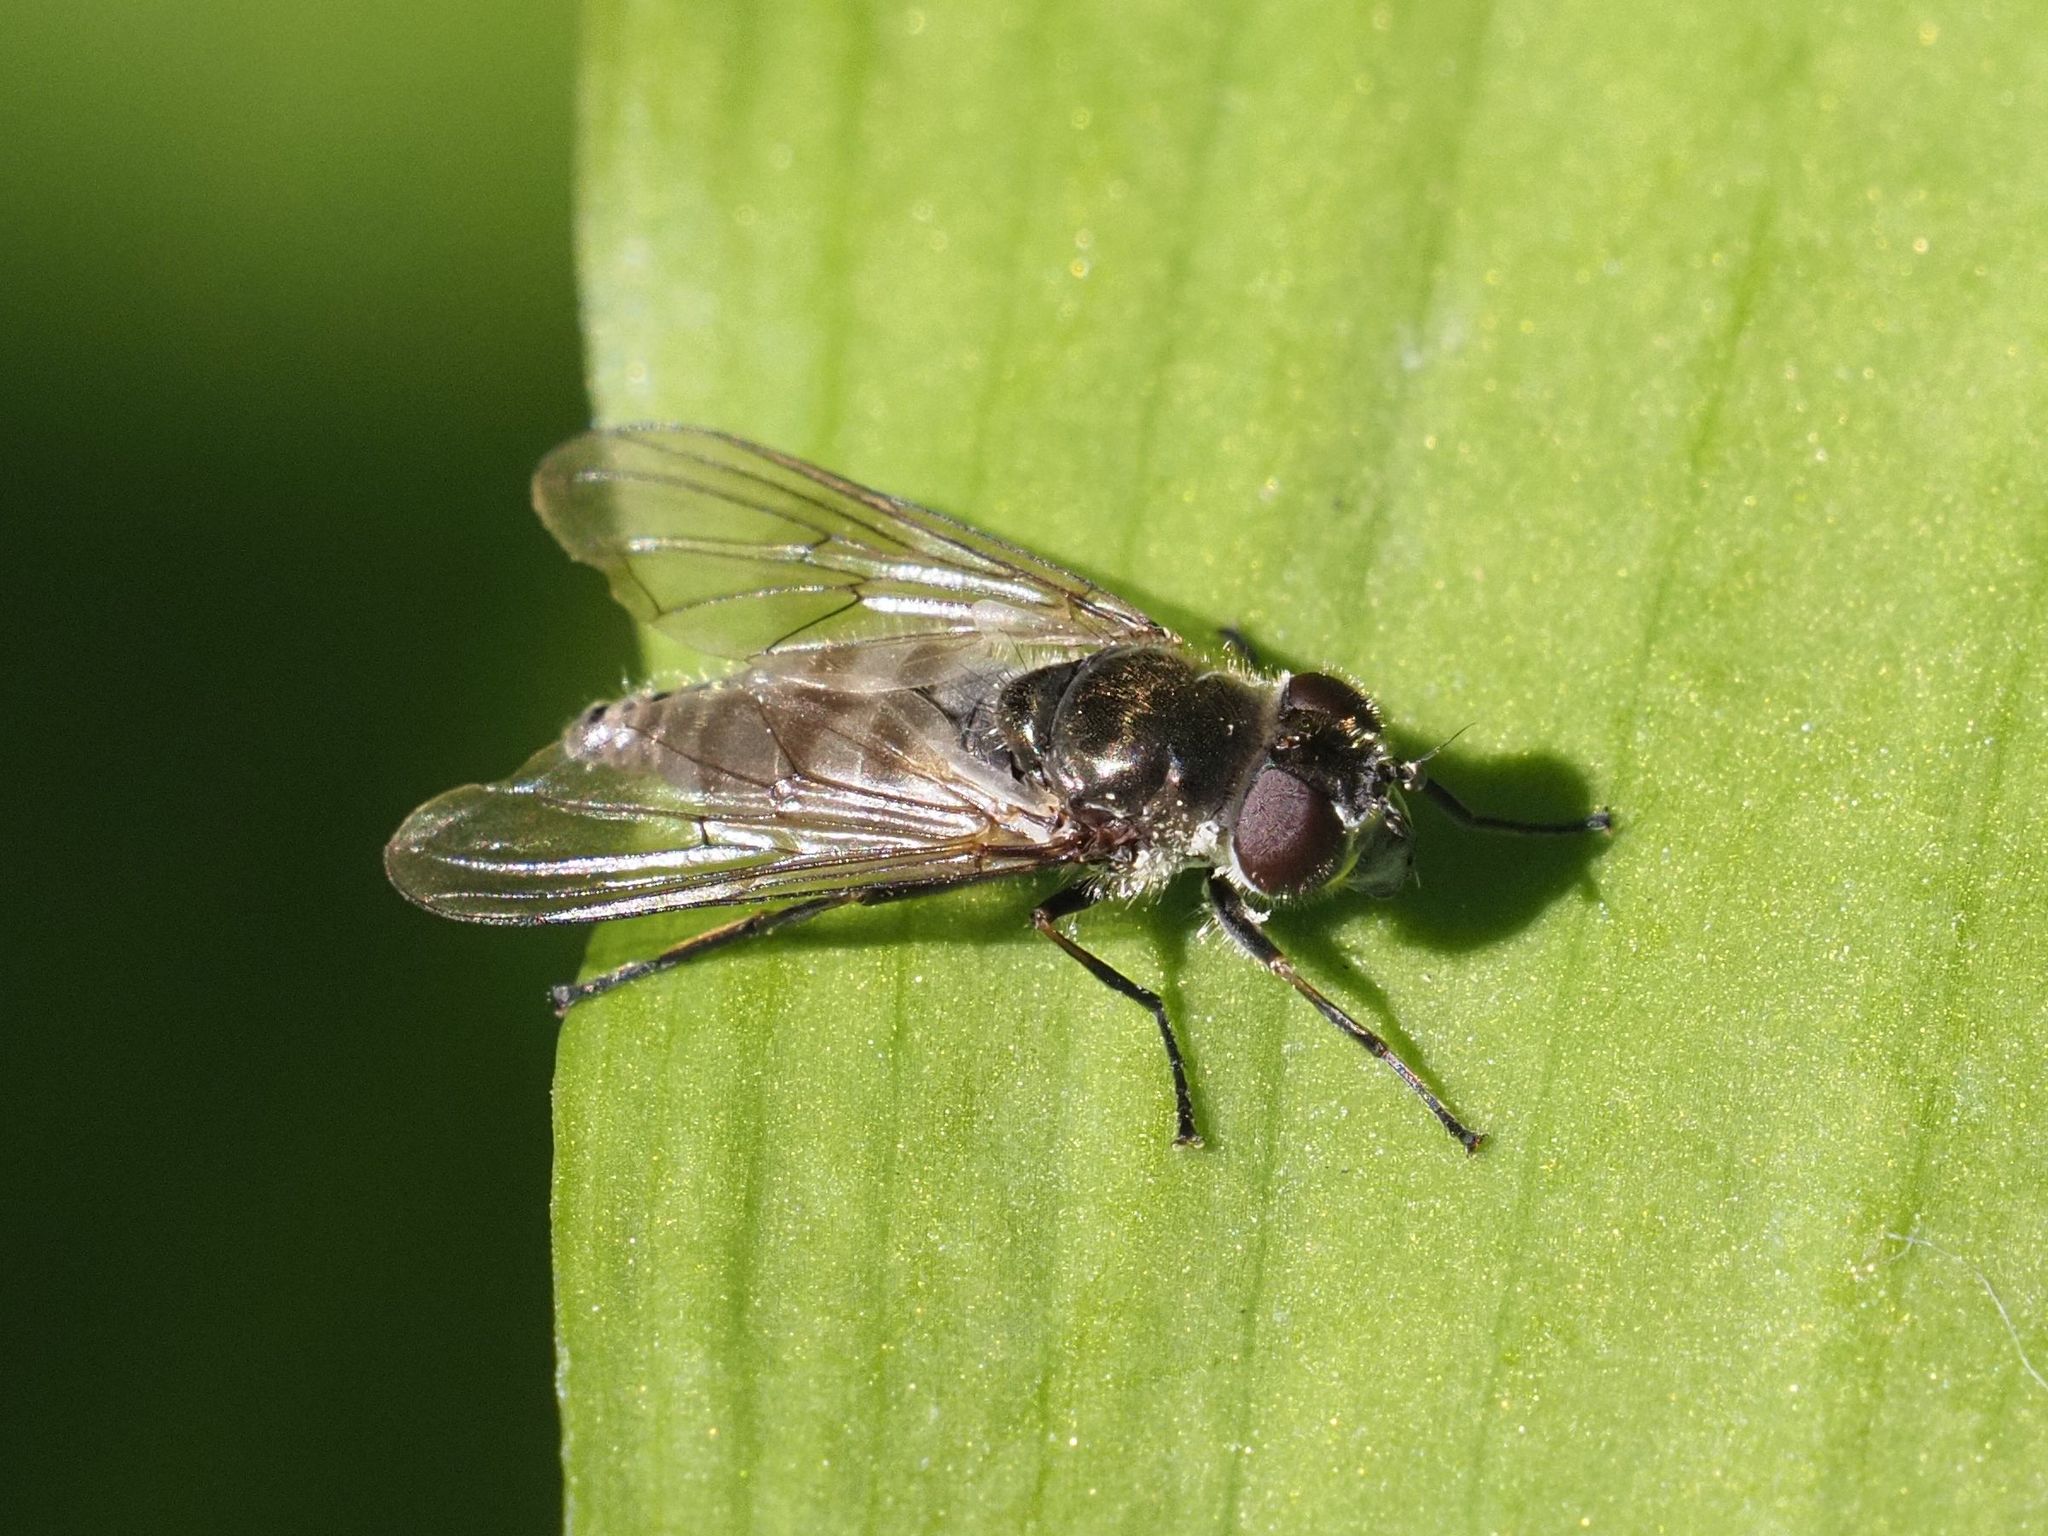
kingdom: Animalia
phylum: Arthropoda
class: Insecta
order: Diptera
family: Syrphidae
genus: Cheilosia
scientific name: Cheilosia fasciata
